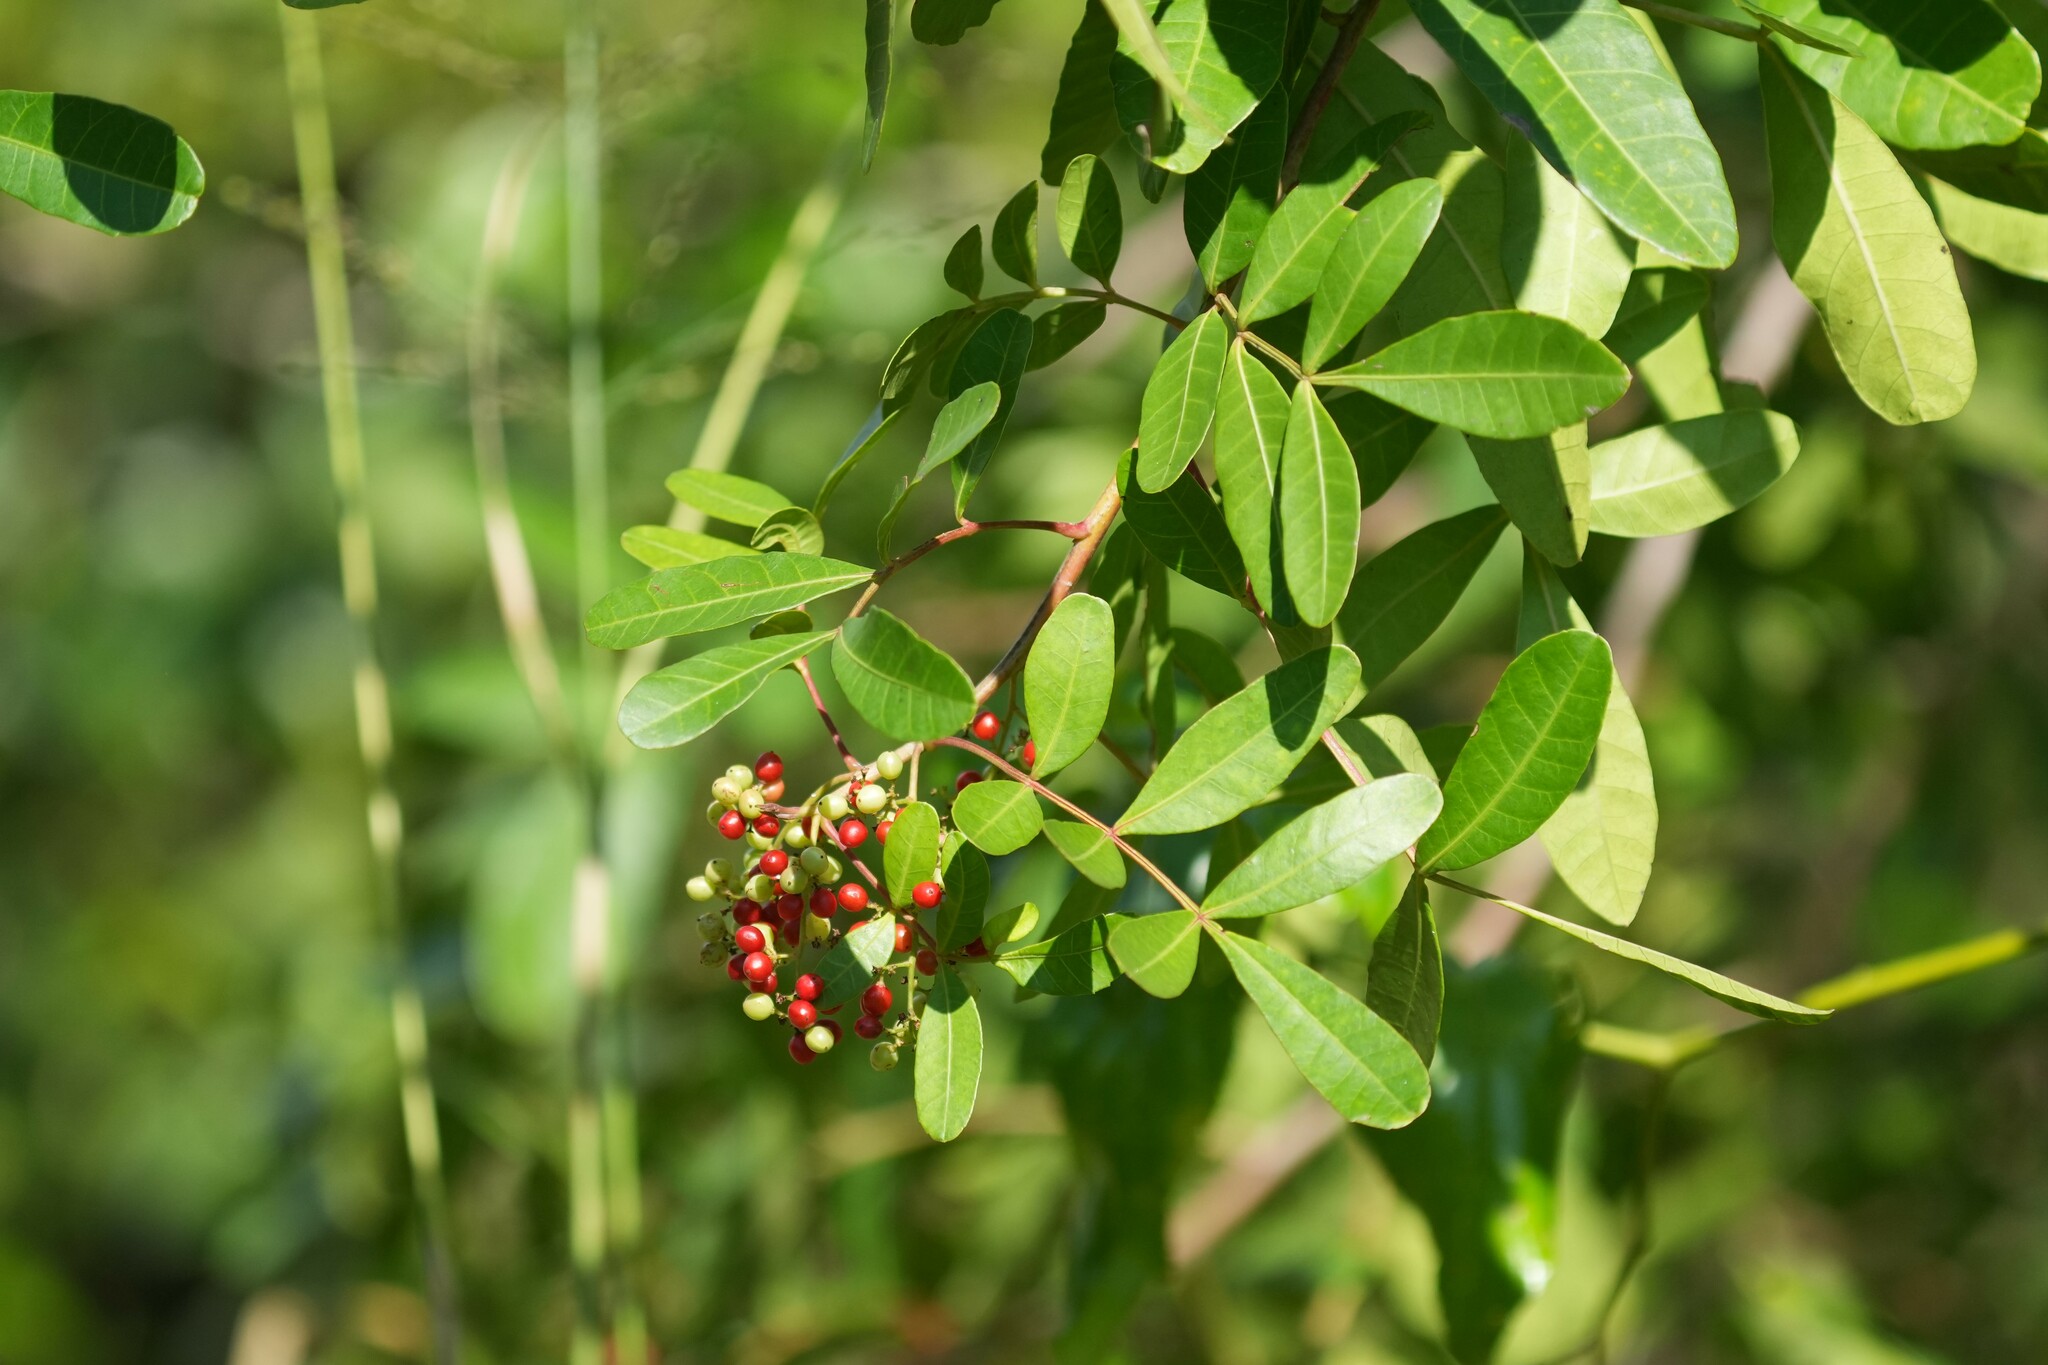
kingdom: Plantae
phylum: Tracheophyta
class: Magnoliopsida
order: Sapindales
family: Anacardiaceae
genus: Schinus
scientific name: Schinus terebinthifolia
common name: Brazilian peppertree
